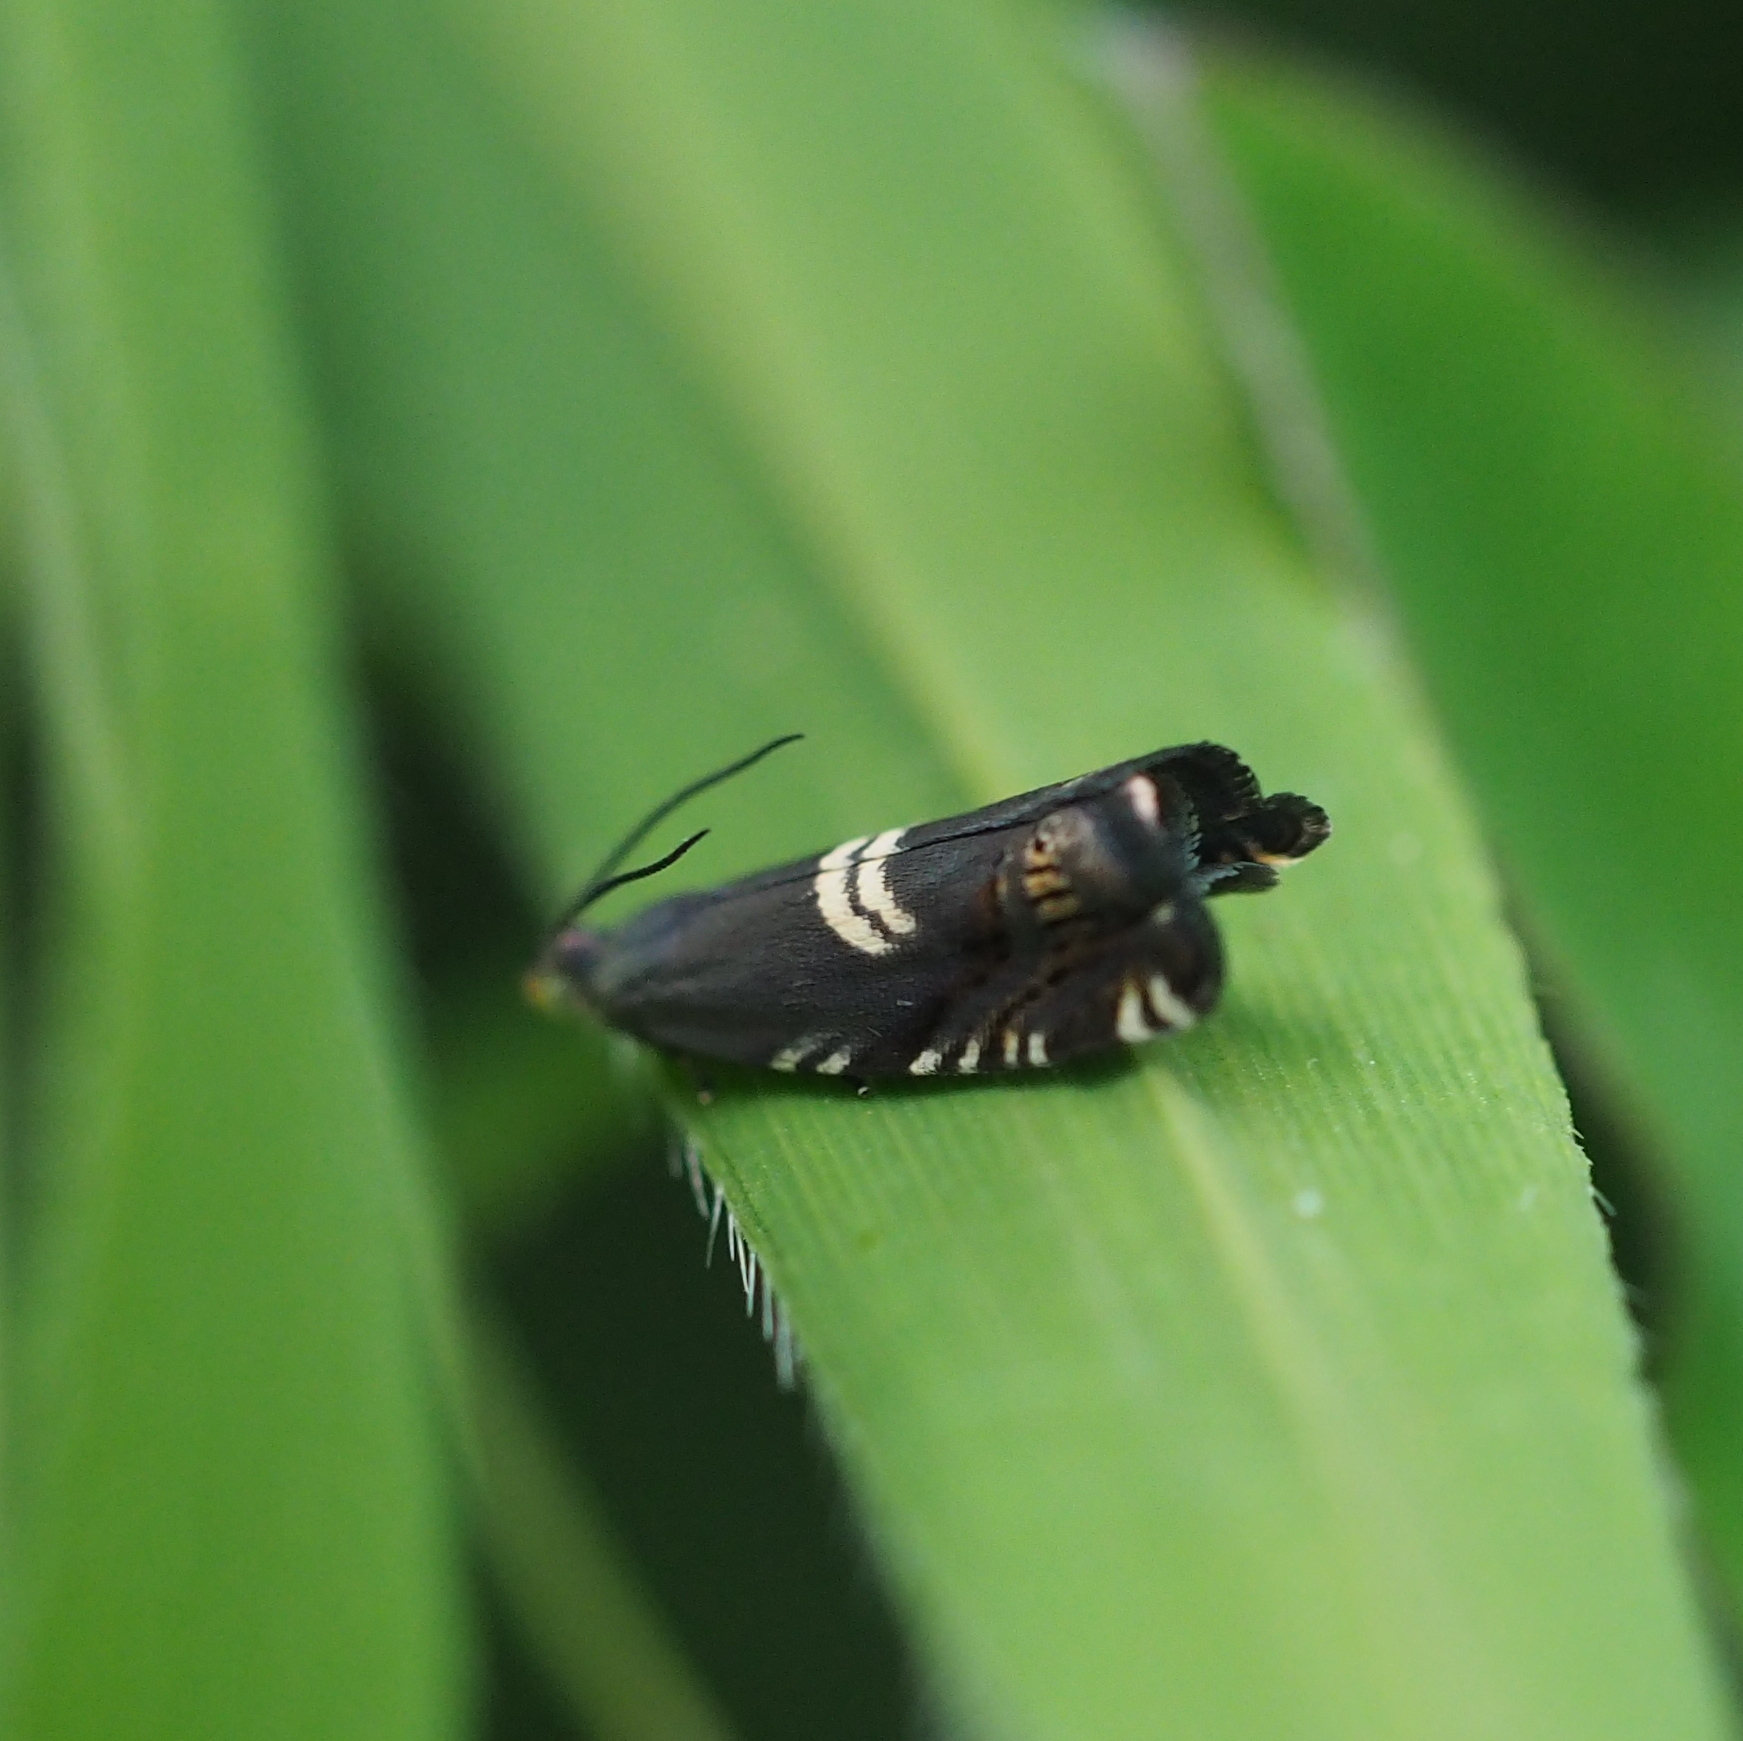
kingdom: Animalia
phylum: Arthropoda
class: Insecta
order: Lepidoptera
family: Tortricidae
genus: Grapholita
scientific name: Grapholita
